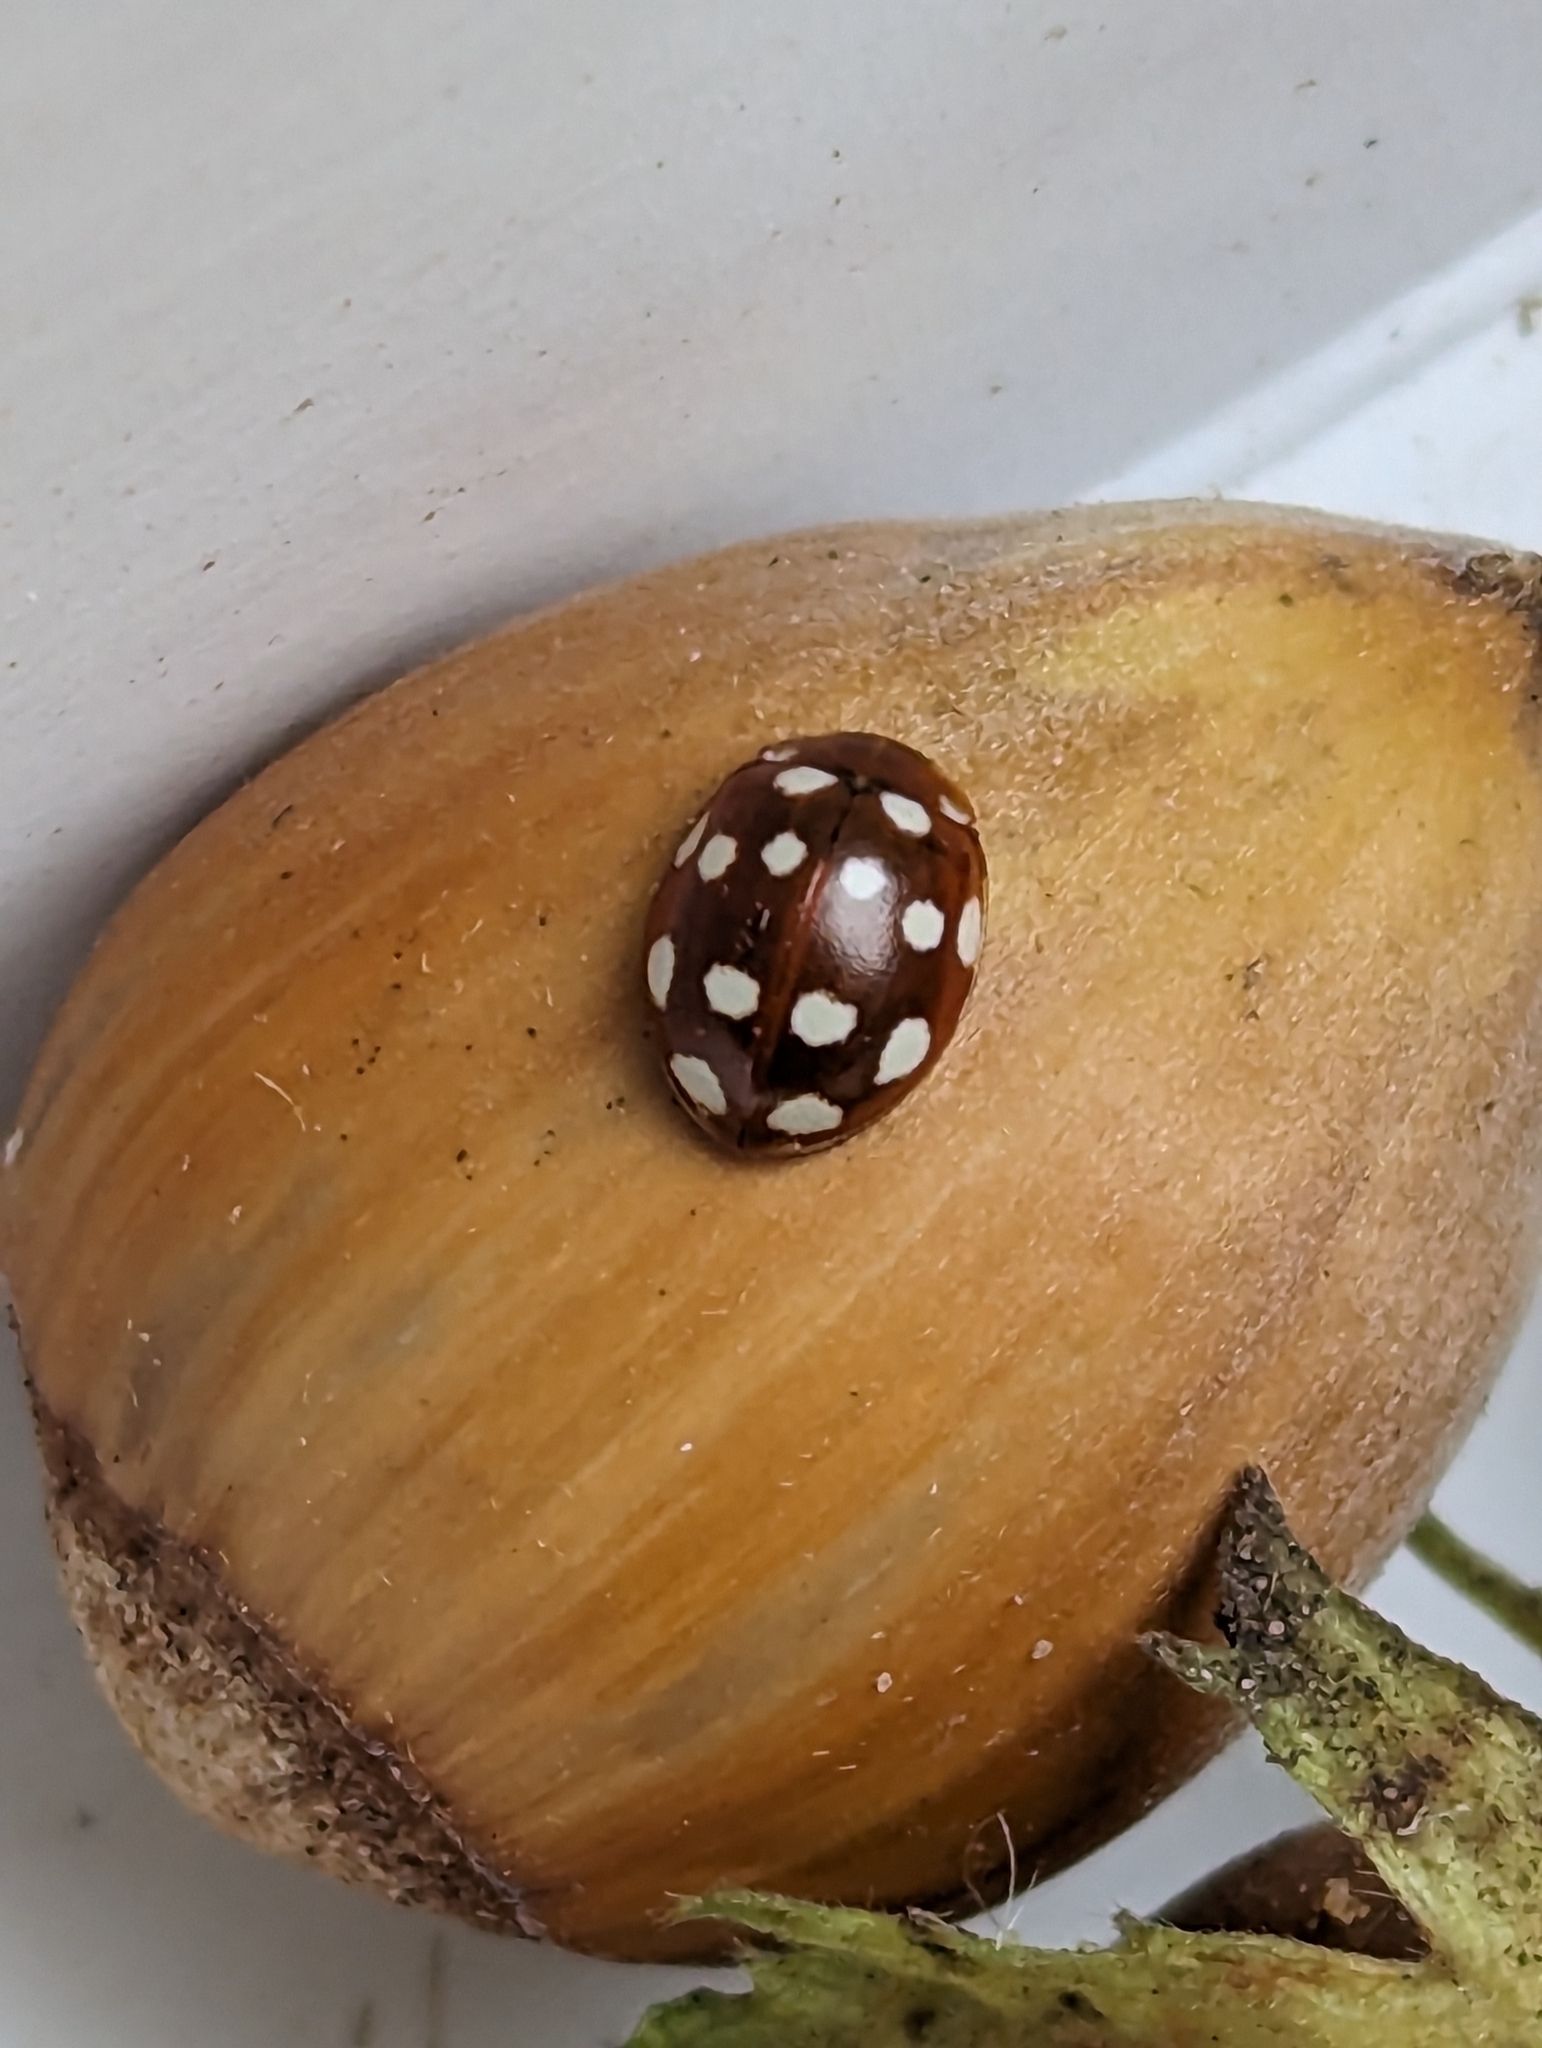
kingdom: Animalia
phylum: Arthropoda
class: Insecta
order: Coleoptera
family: Coccinellidae
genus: Calvia
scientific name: Calvia quatuordecimguttata
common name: Cream-spot ladybird
